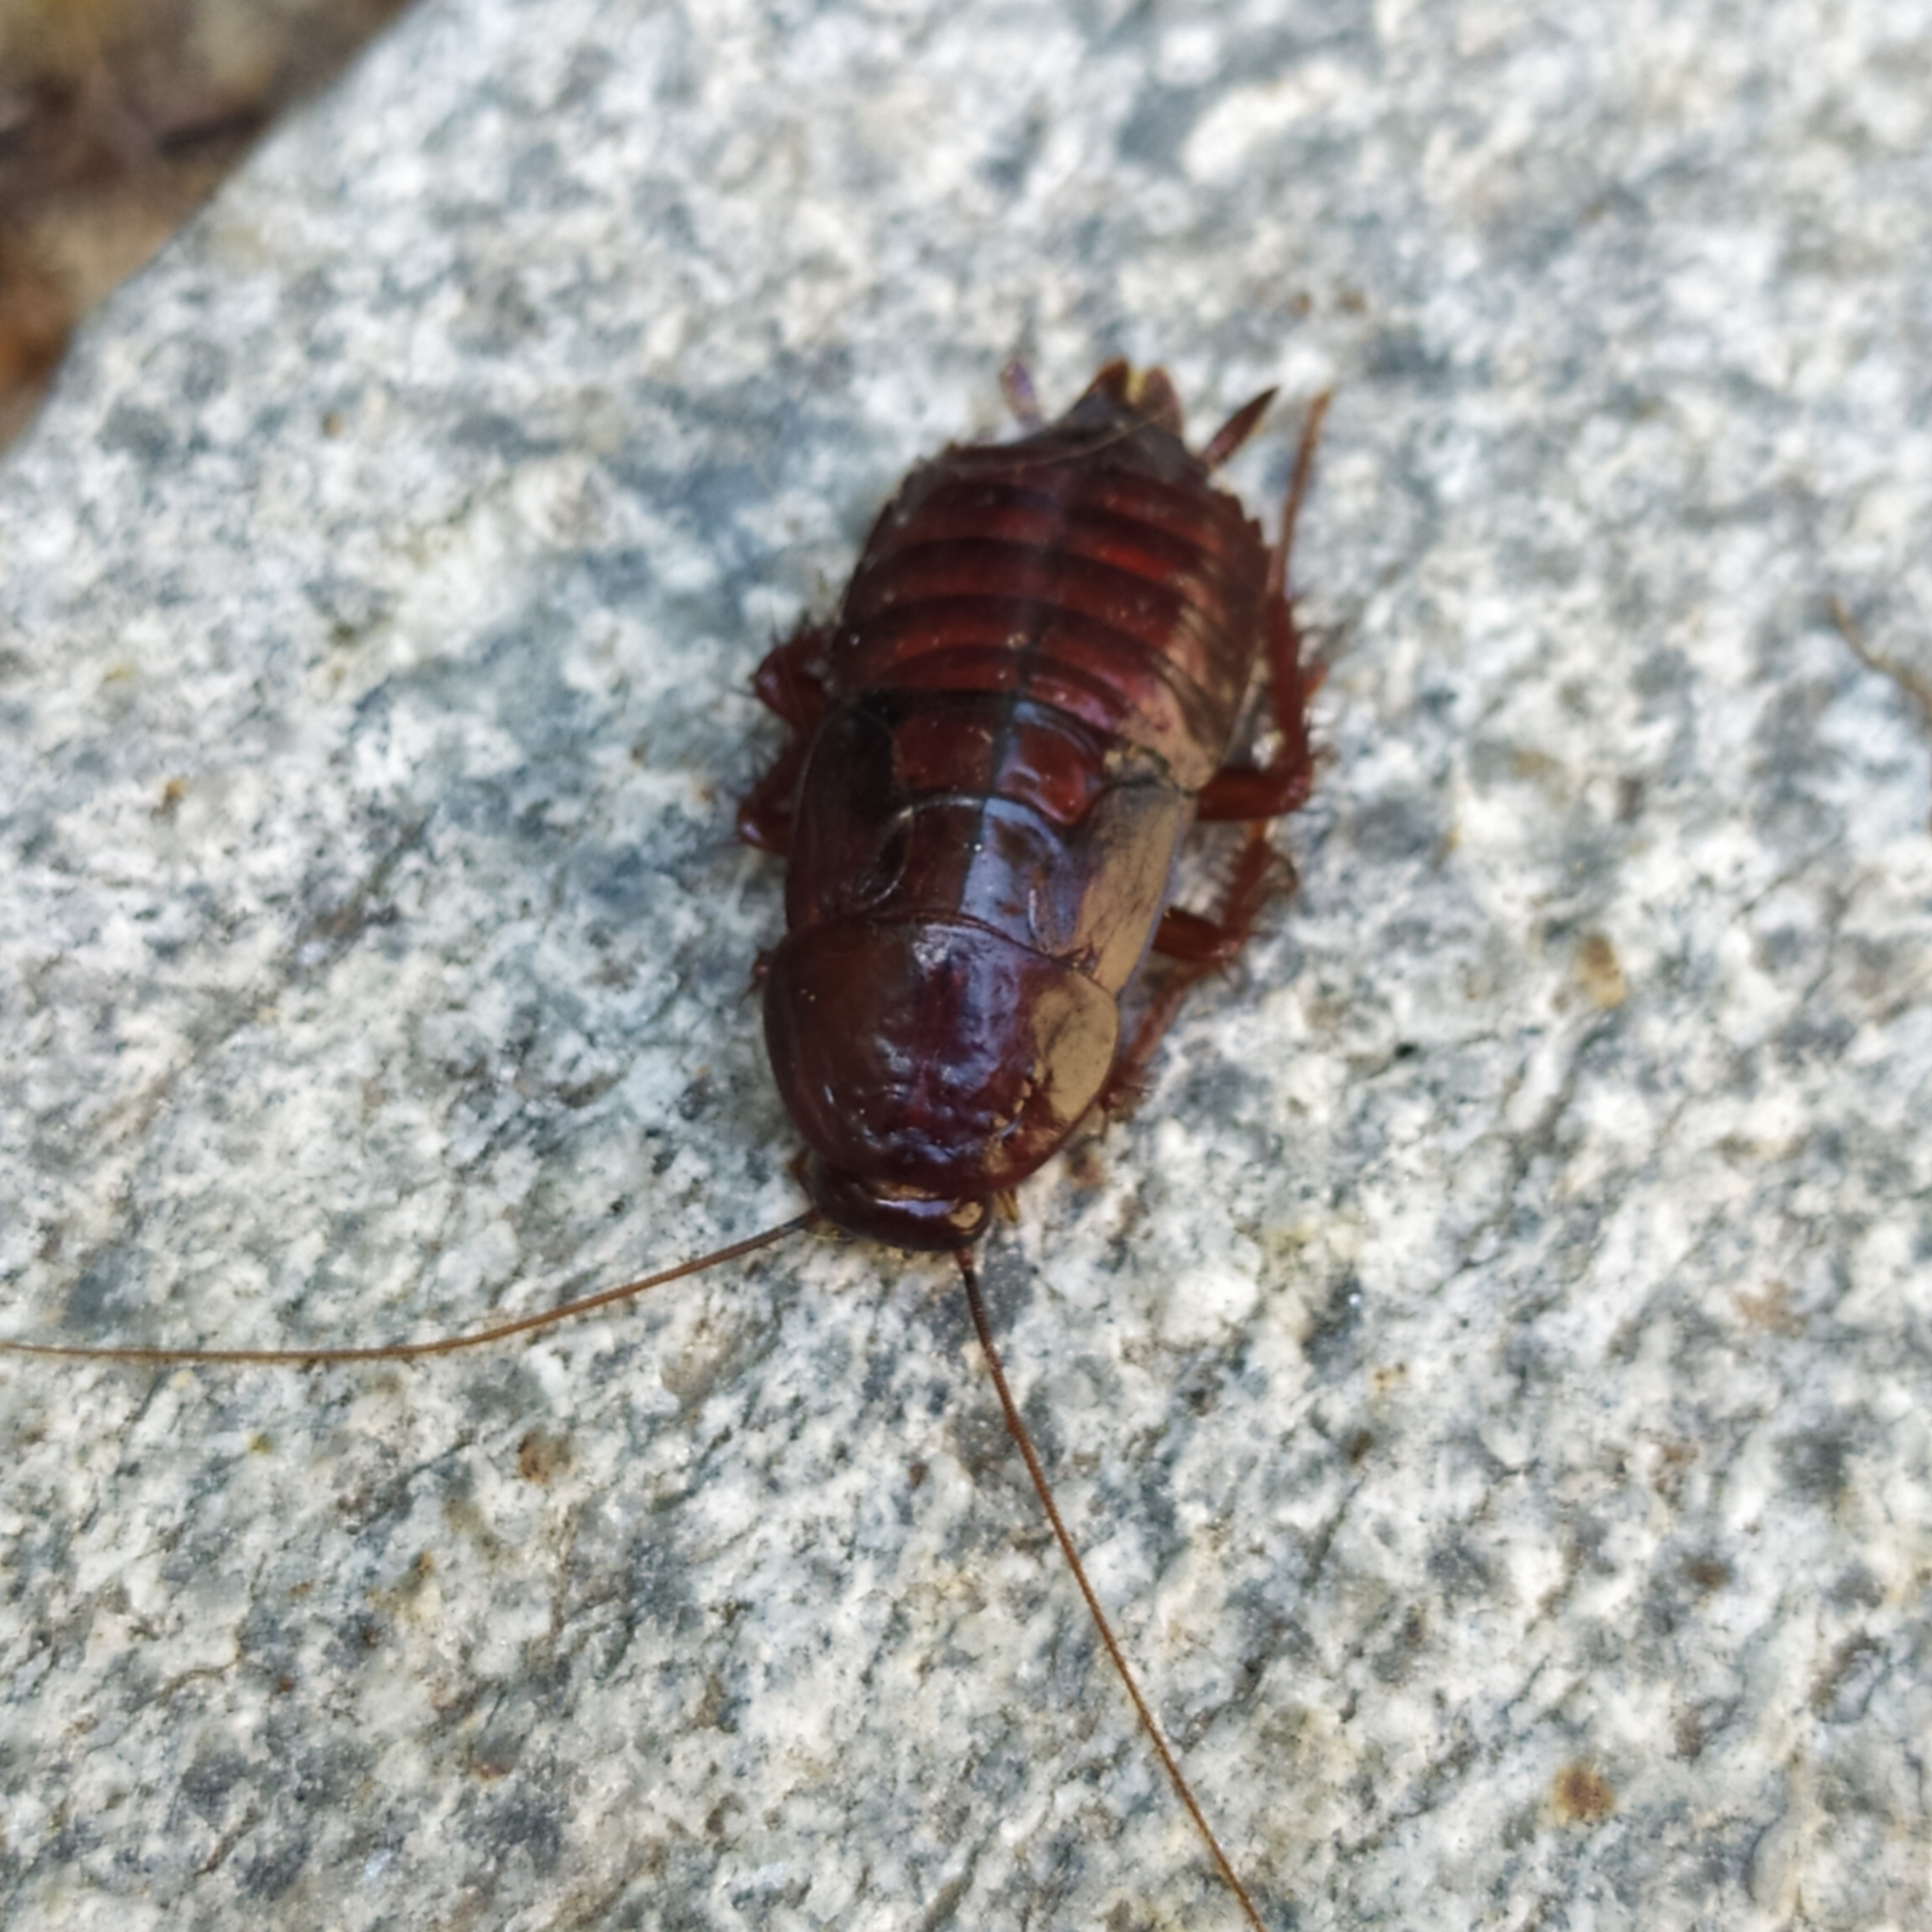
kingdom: Animalia
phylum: Arthropoda
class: Insecta
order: Blattodea
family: Blattidae
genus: Blatta
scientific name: Blatta orientalis
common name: Oriental cockroach
